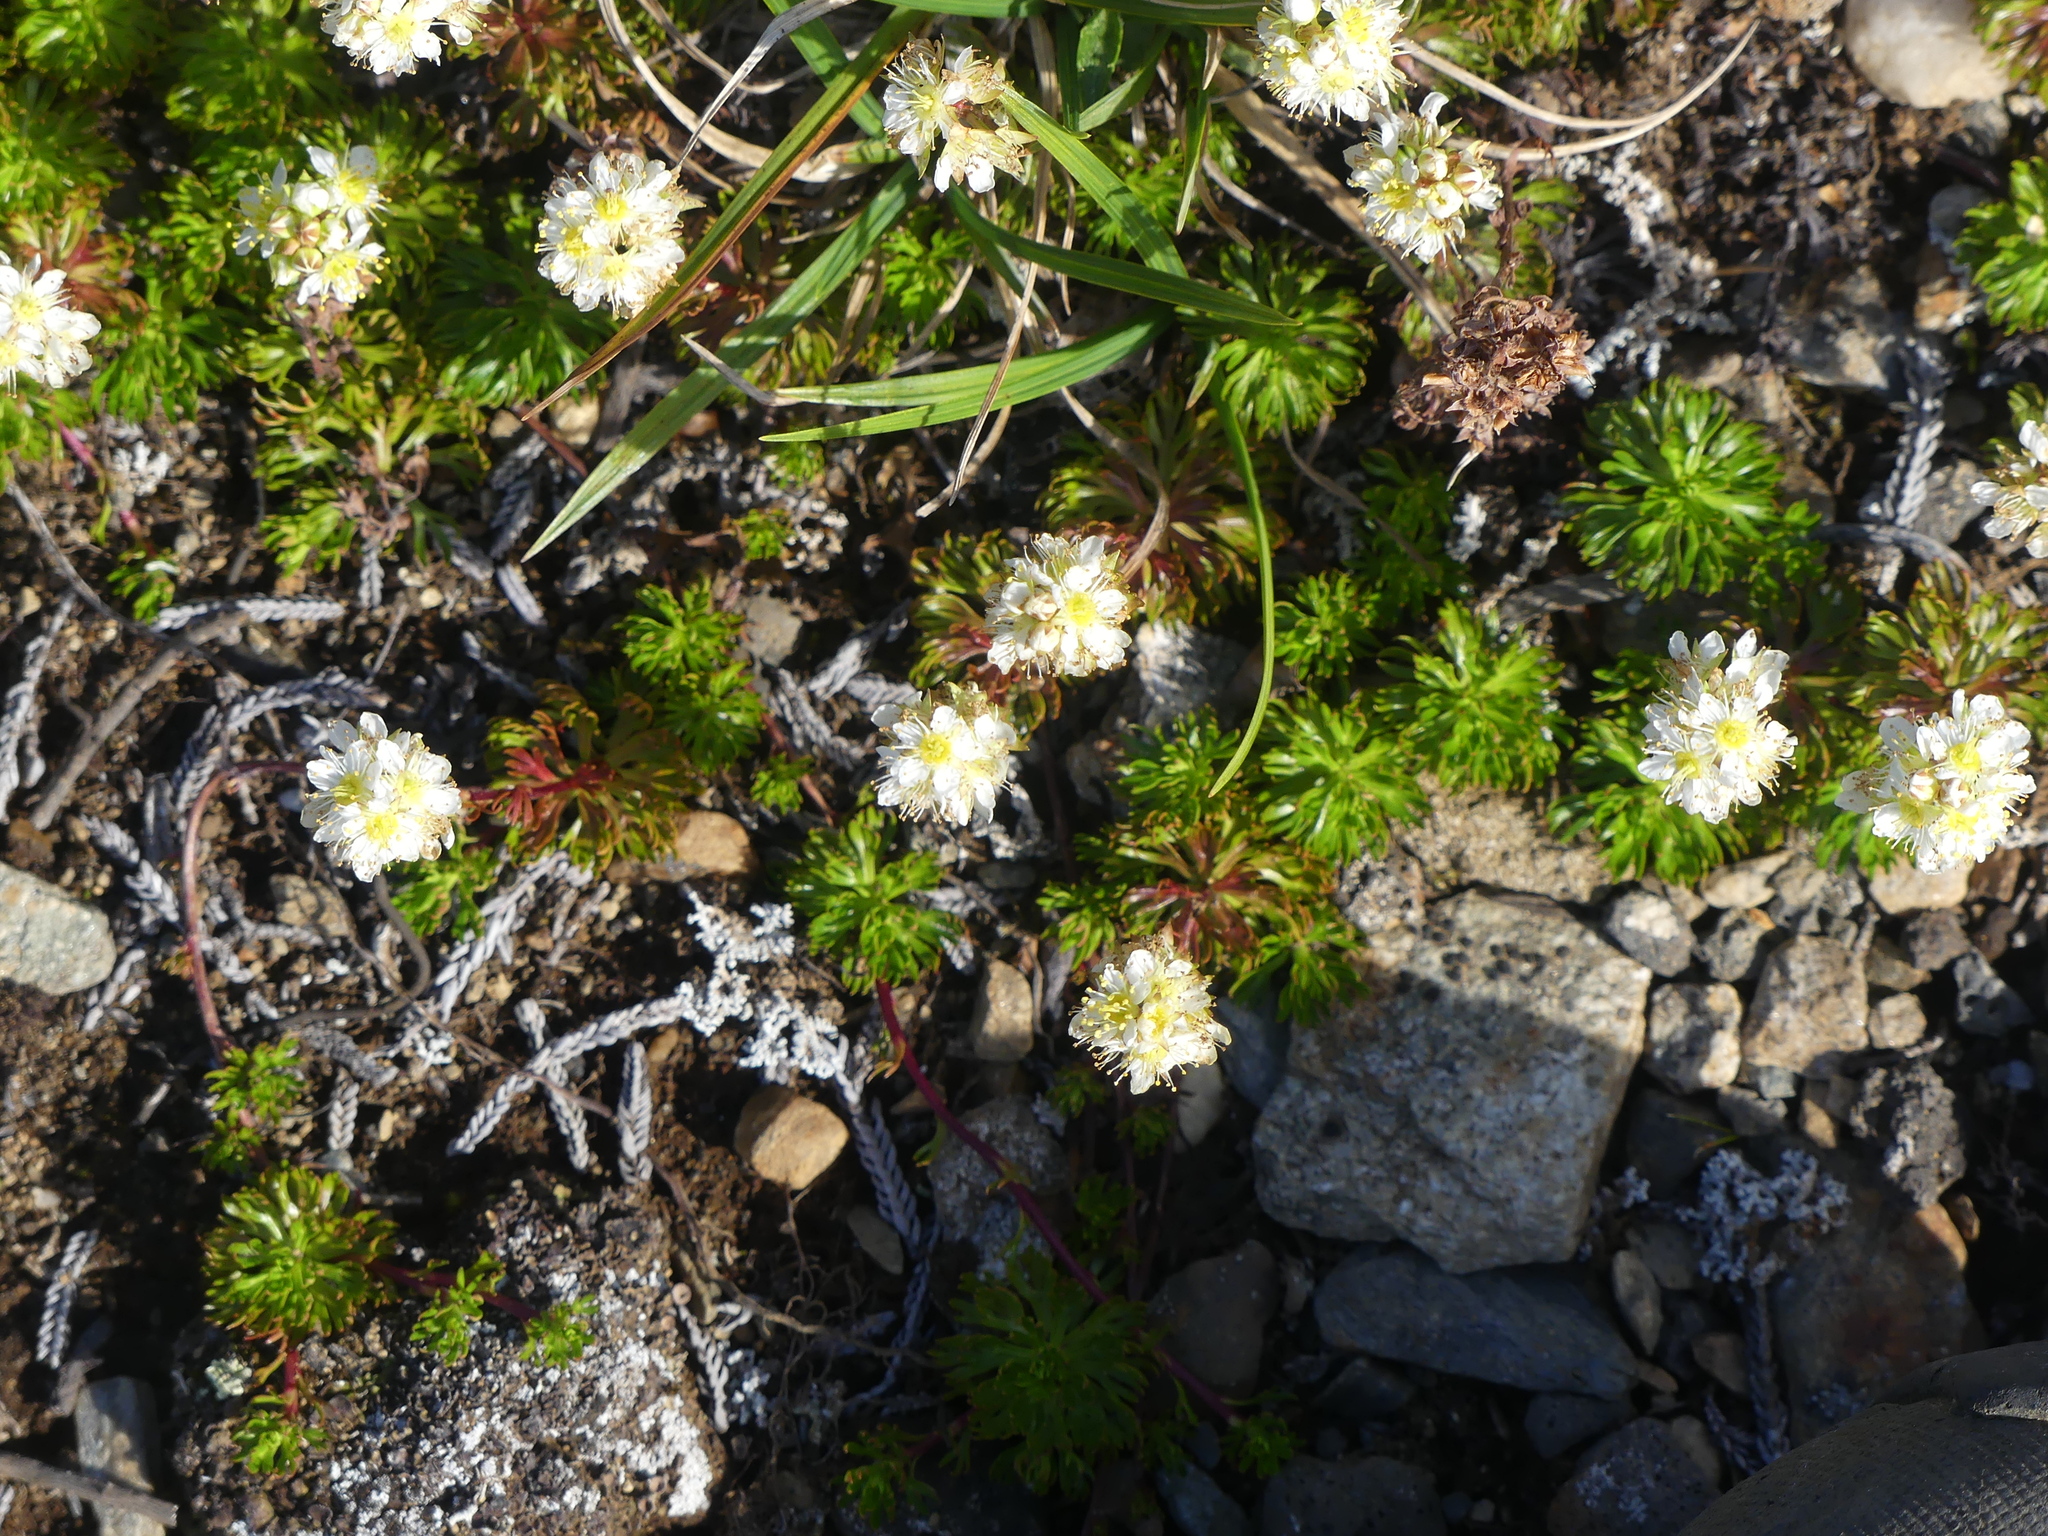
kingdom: Plantae
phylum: Tracheophyta
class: Magnoliopsida
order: Rosales
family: Rosaceae
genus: Luetkea
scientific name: Luetkea pectinata
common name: Partridgefoot
